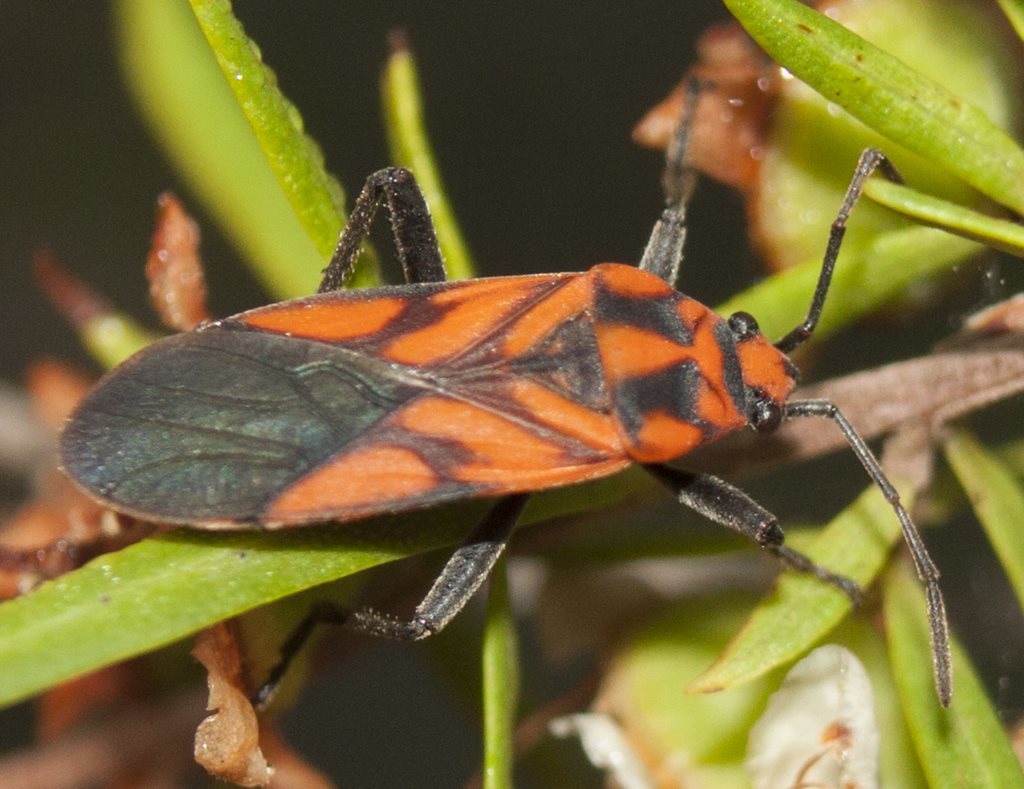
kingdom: Animalia
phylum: Arthropoda
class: Insecta
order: Hemiptera
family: Lygaeidae
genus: Spilostethus
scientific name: Spilostethus decoratus
